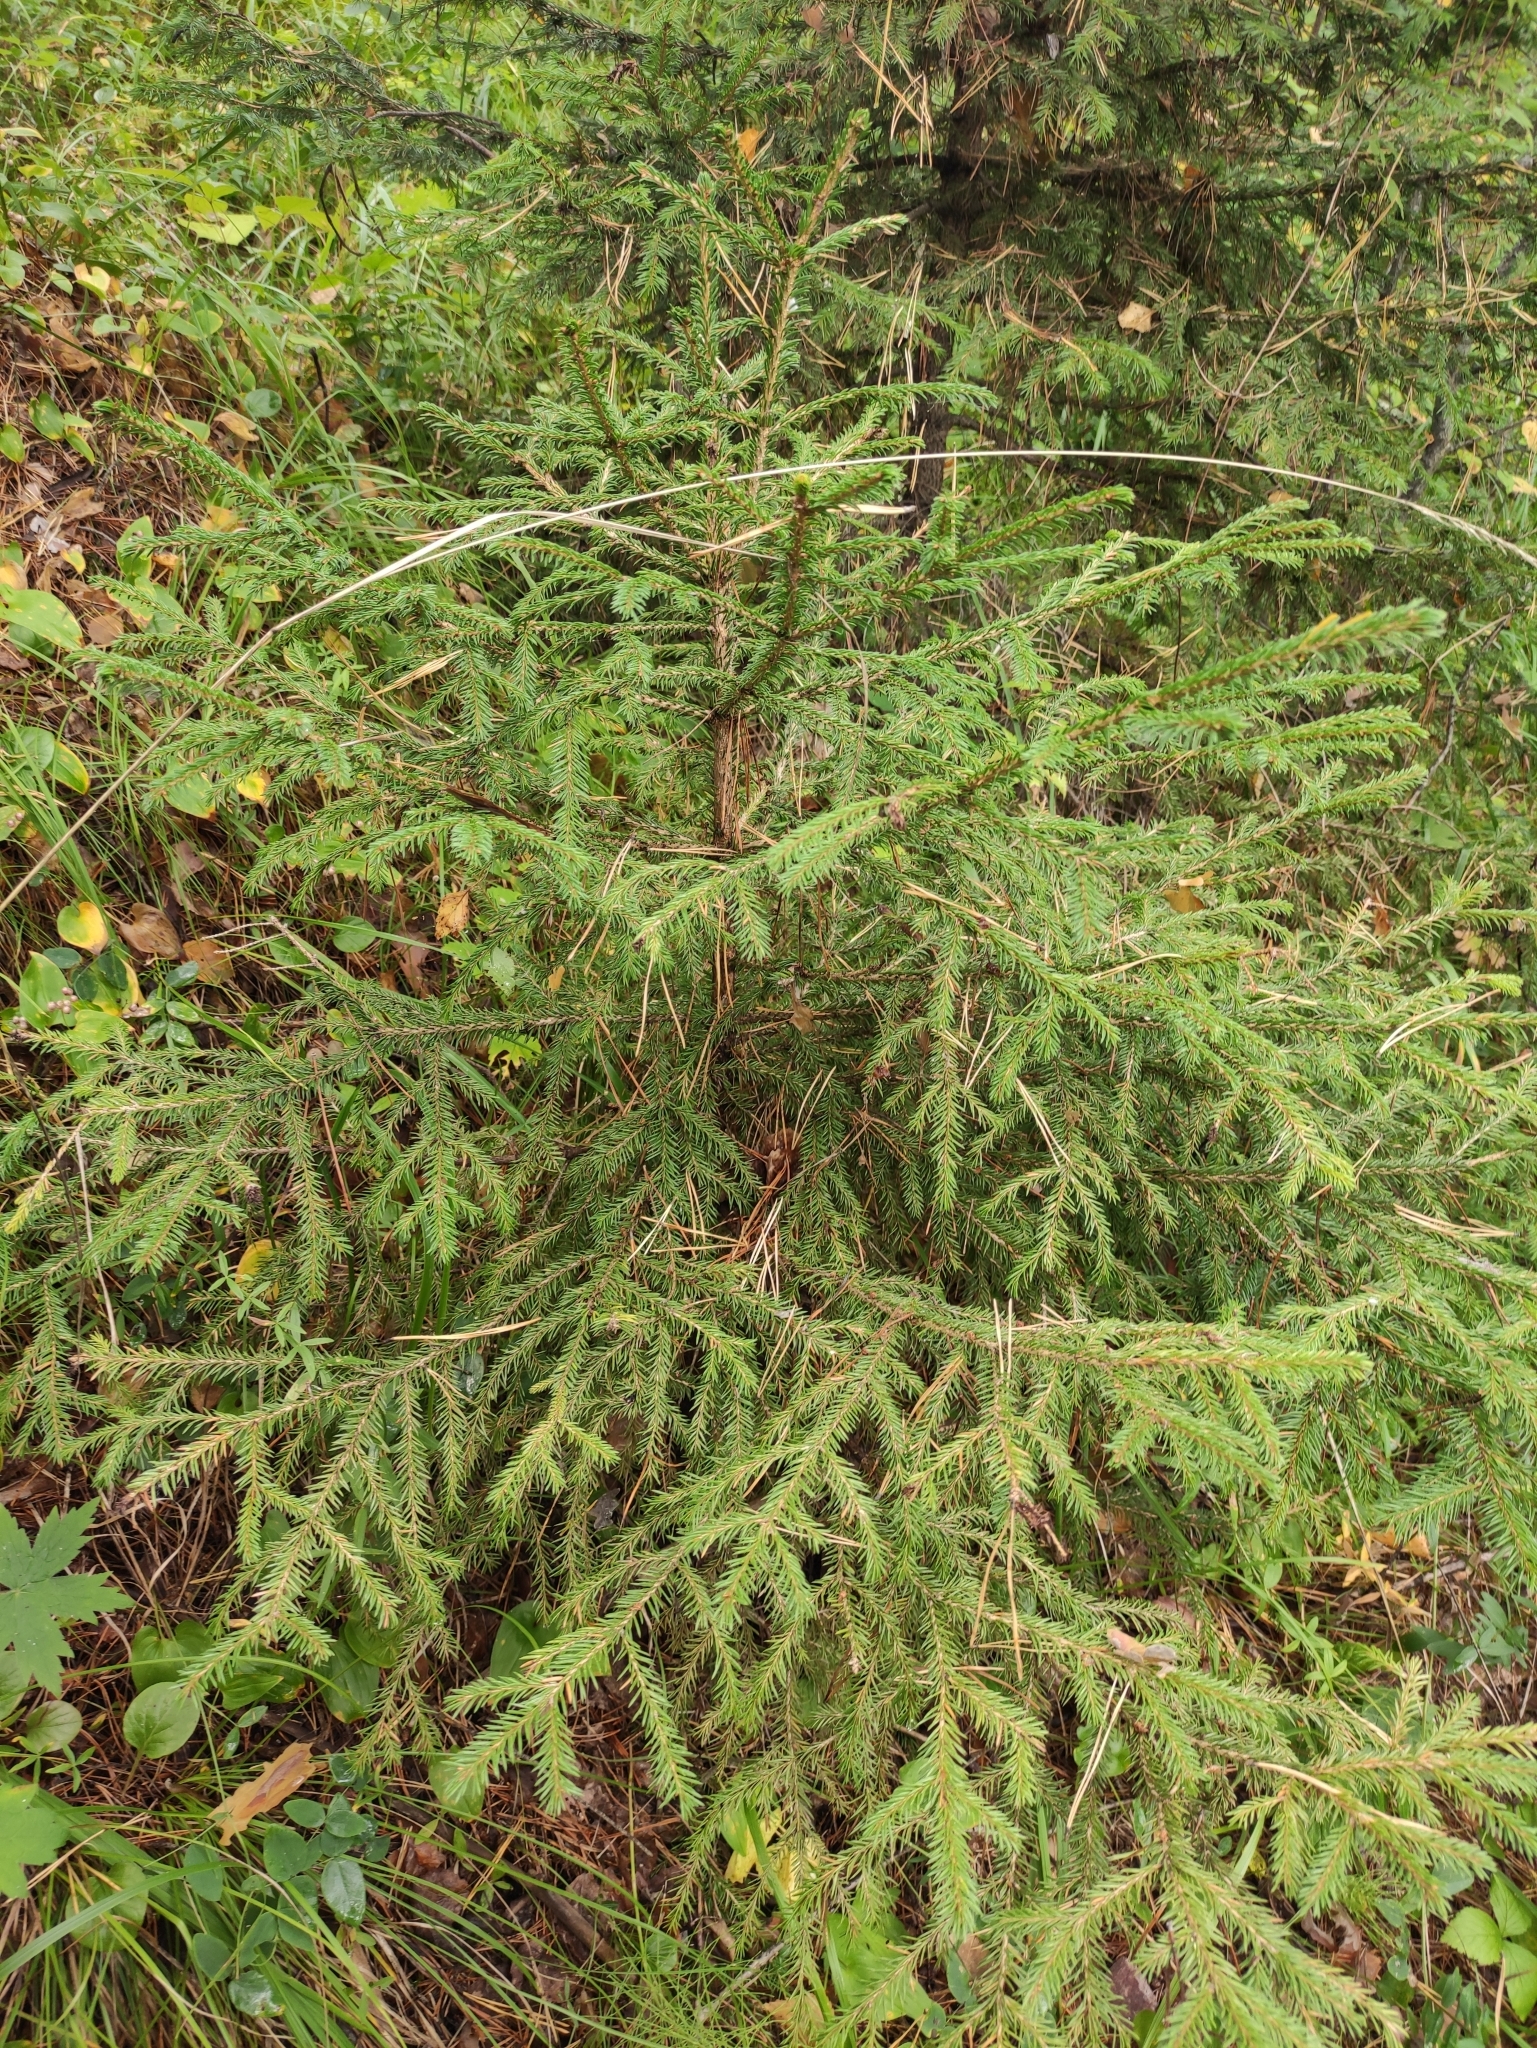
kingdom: Plantae
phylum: Tracheophyta
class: Pinopsida
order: Pinales
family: Pinaceae
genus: Picea
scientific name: Picea obovata
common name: Siberian spruce
